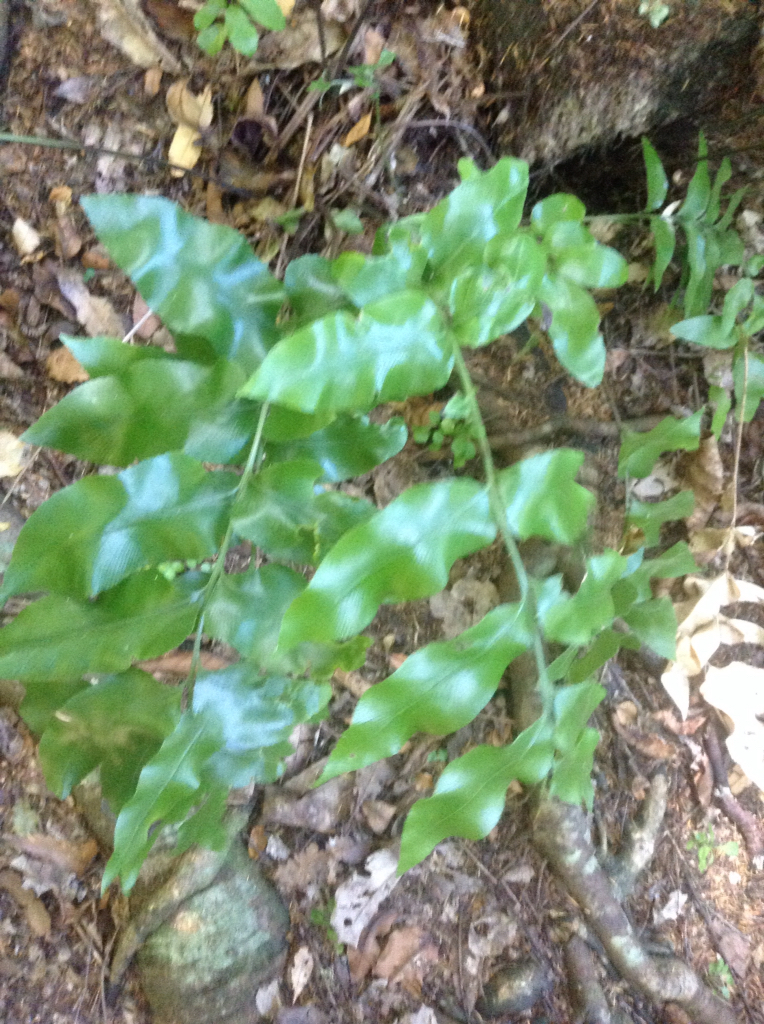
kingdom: Plantae
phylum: Tracheophyta
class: Polypodiopsida
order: Polypodiales
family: Aspleniaceae
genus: Asplenium
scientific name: Asplenium oblongifolium
